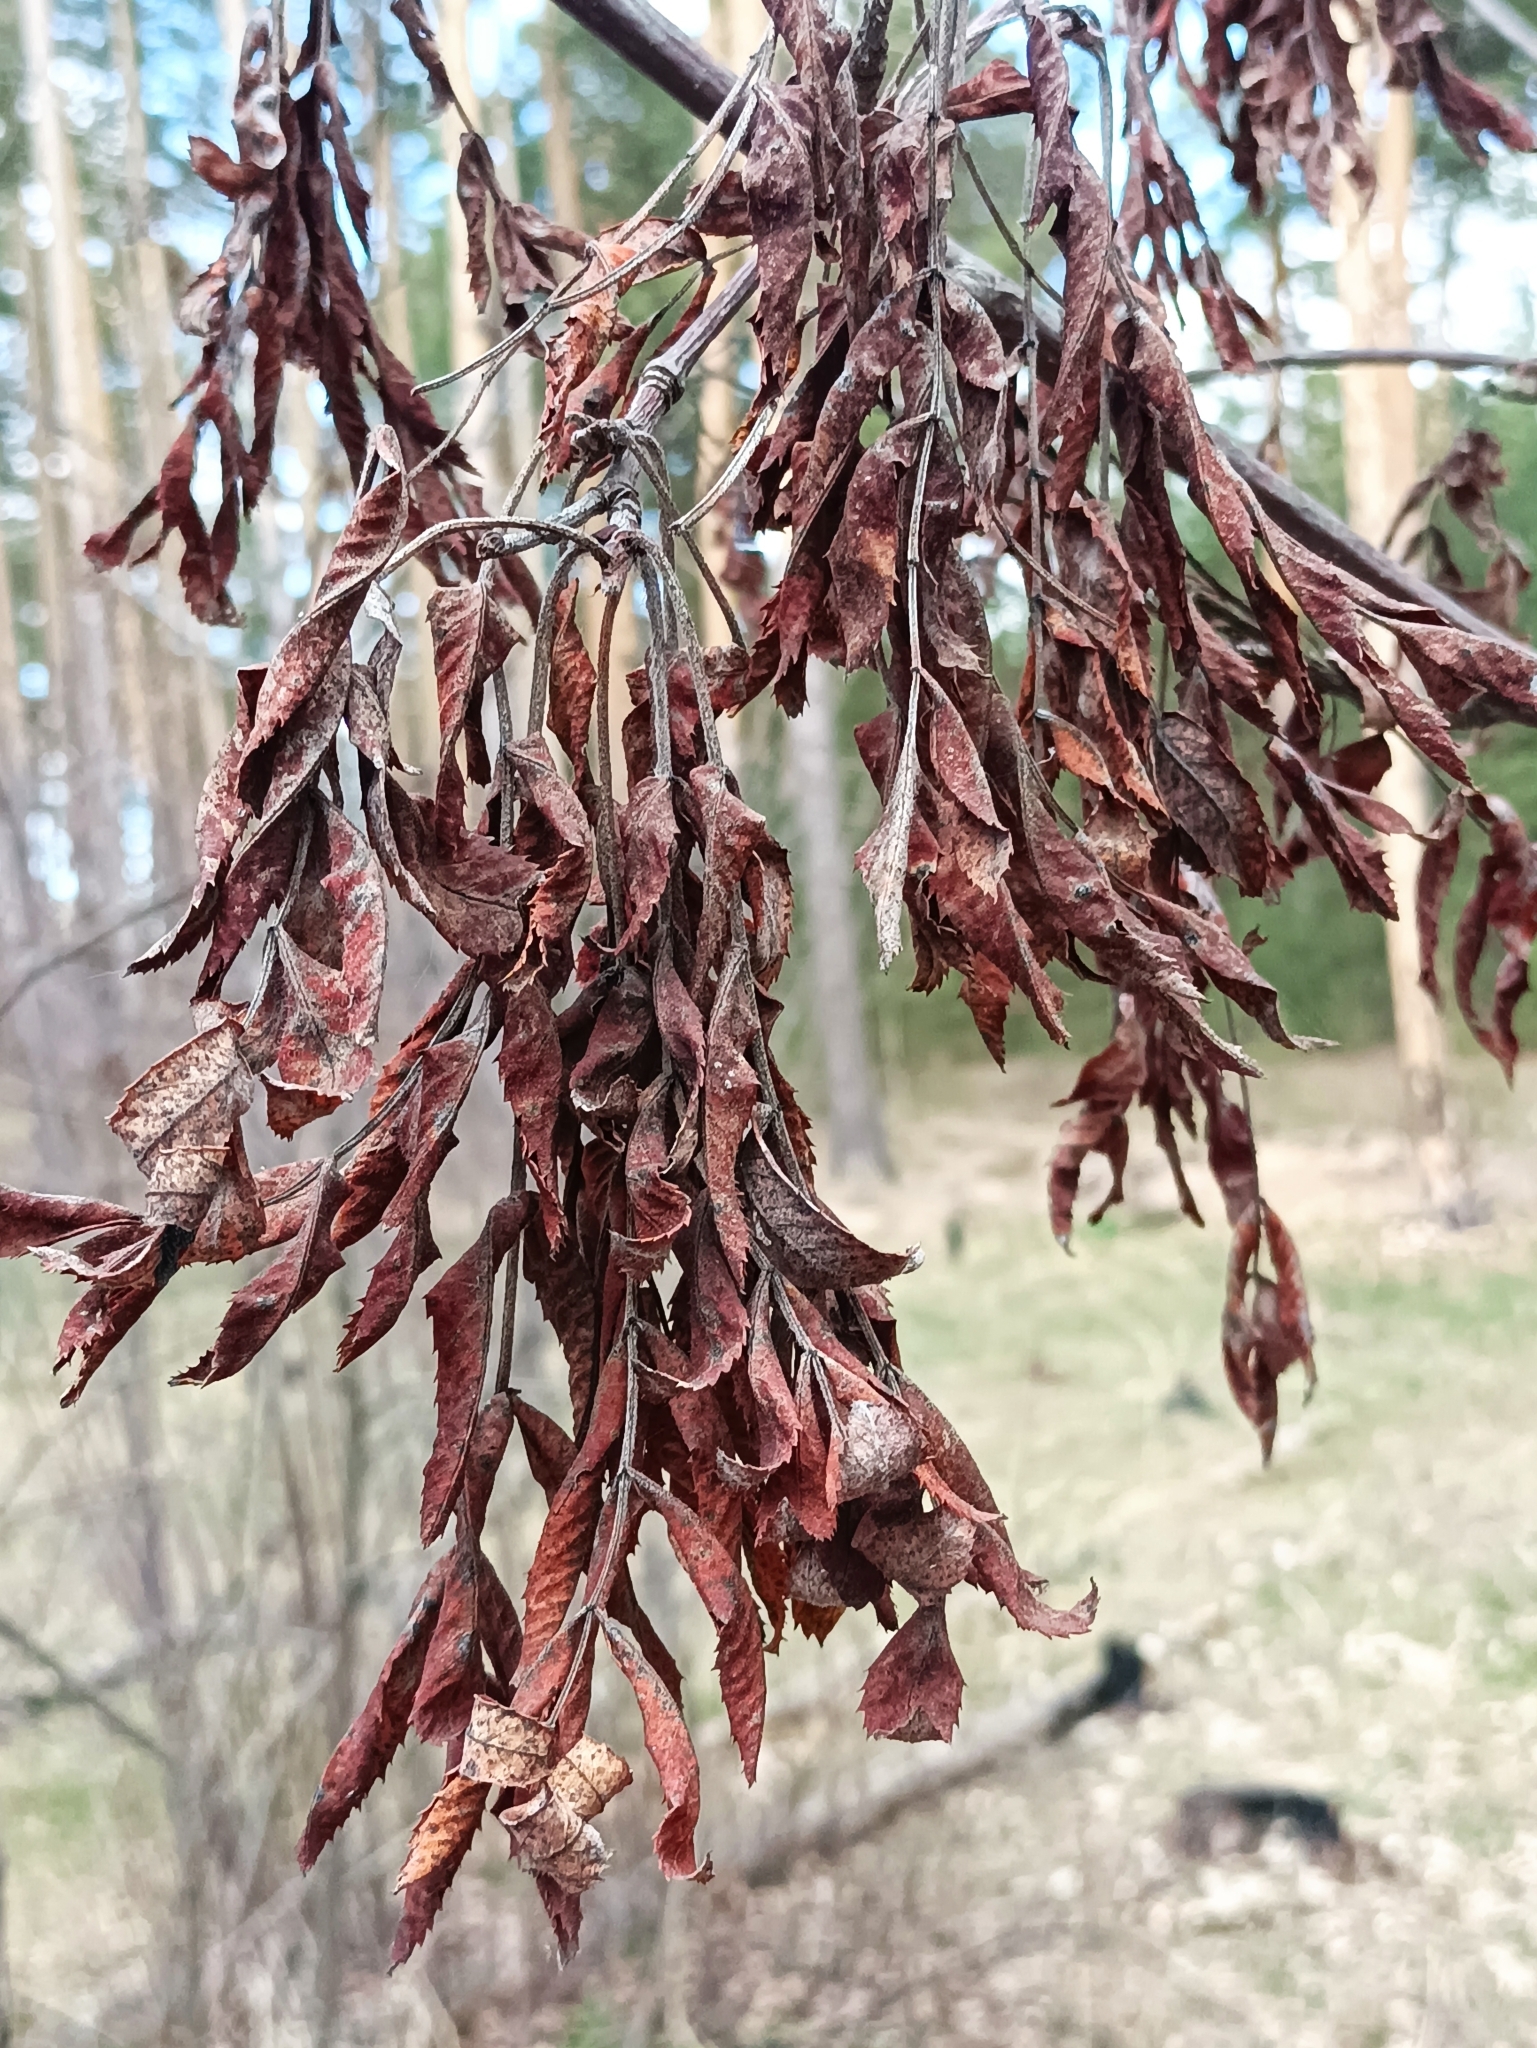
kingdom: Plantae
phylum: Tracheophyta
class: Magnoliopsida
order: Rosales
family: Rosaceae
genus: Sorbus
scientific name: Sorbus aucuparia
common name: Rowan
